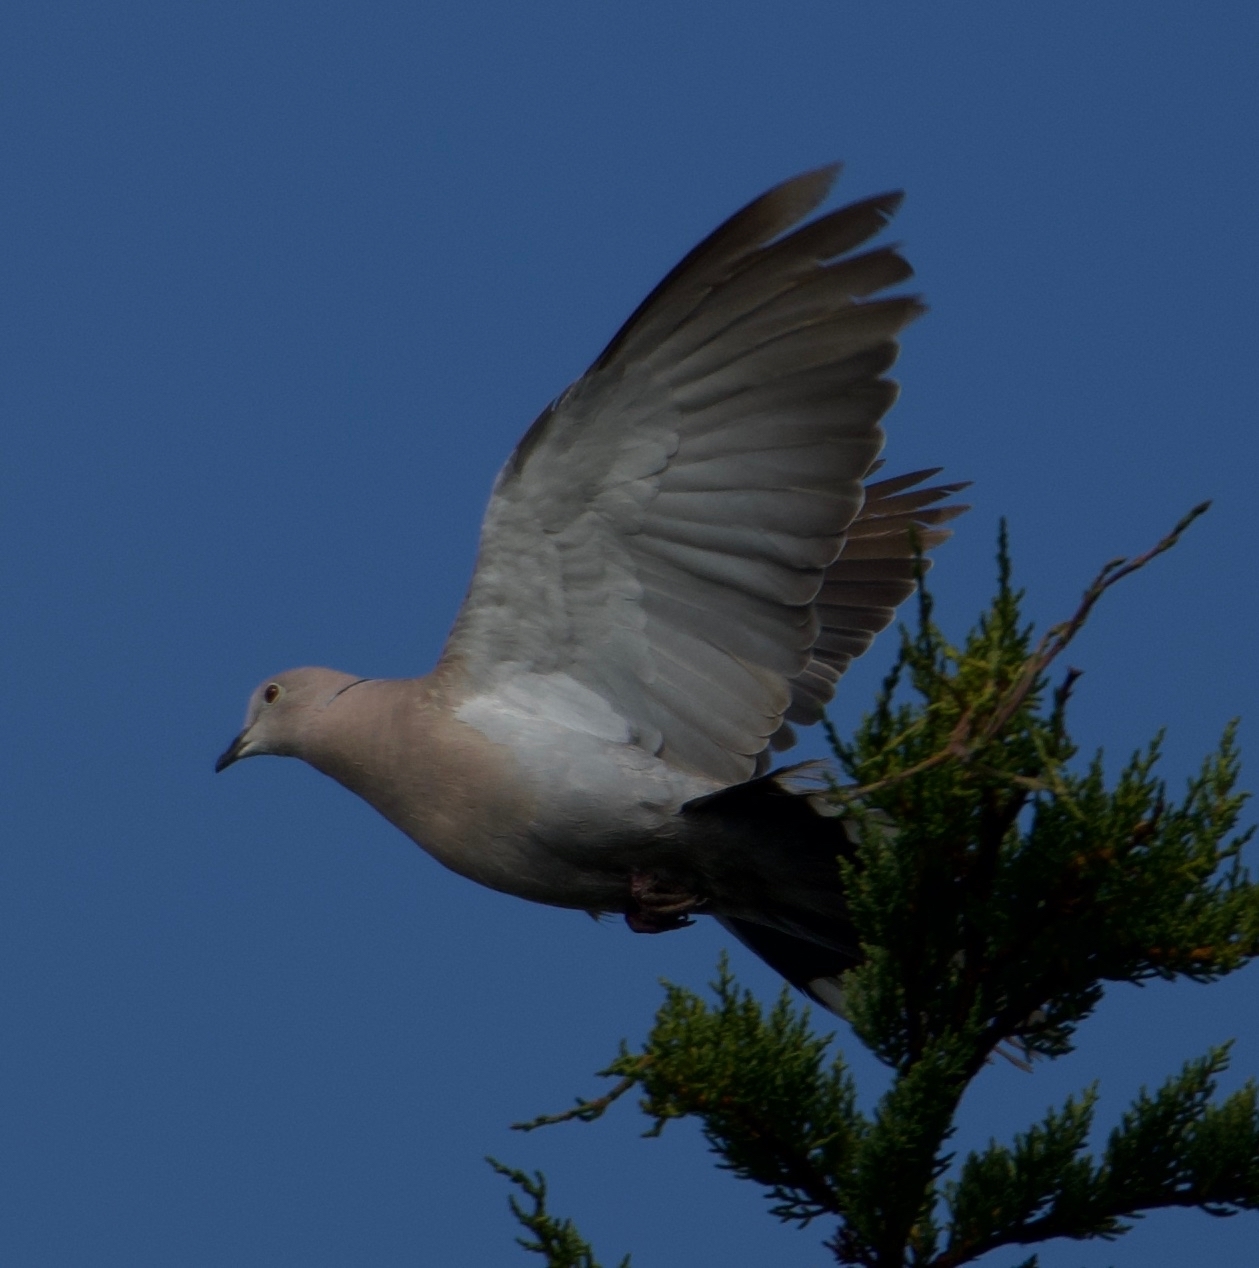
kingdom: Animalia
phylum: Chordata
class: Aves
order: Columbiformes
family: Columbidae
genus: Streptopelia
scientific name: Streptopelia decaocto
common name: Eurasian collared dove
